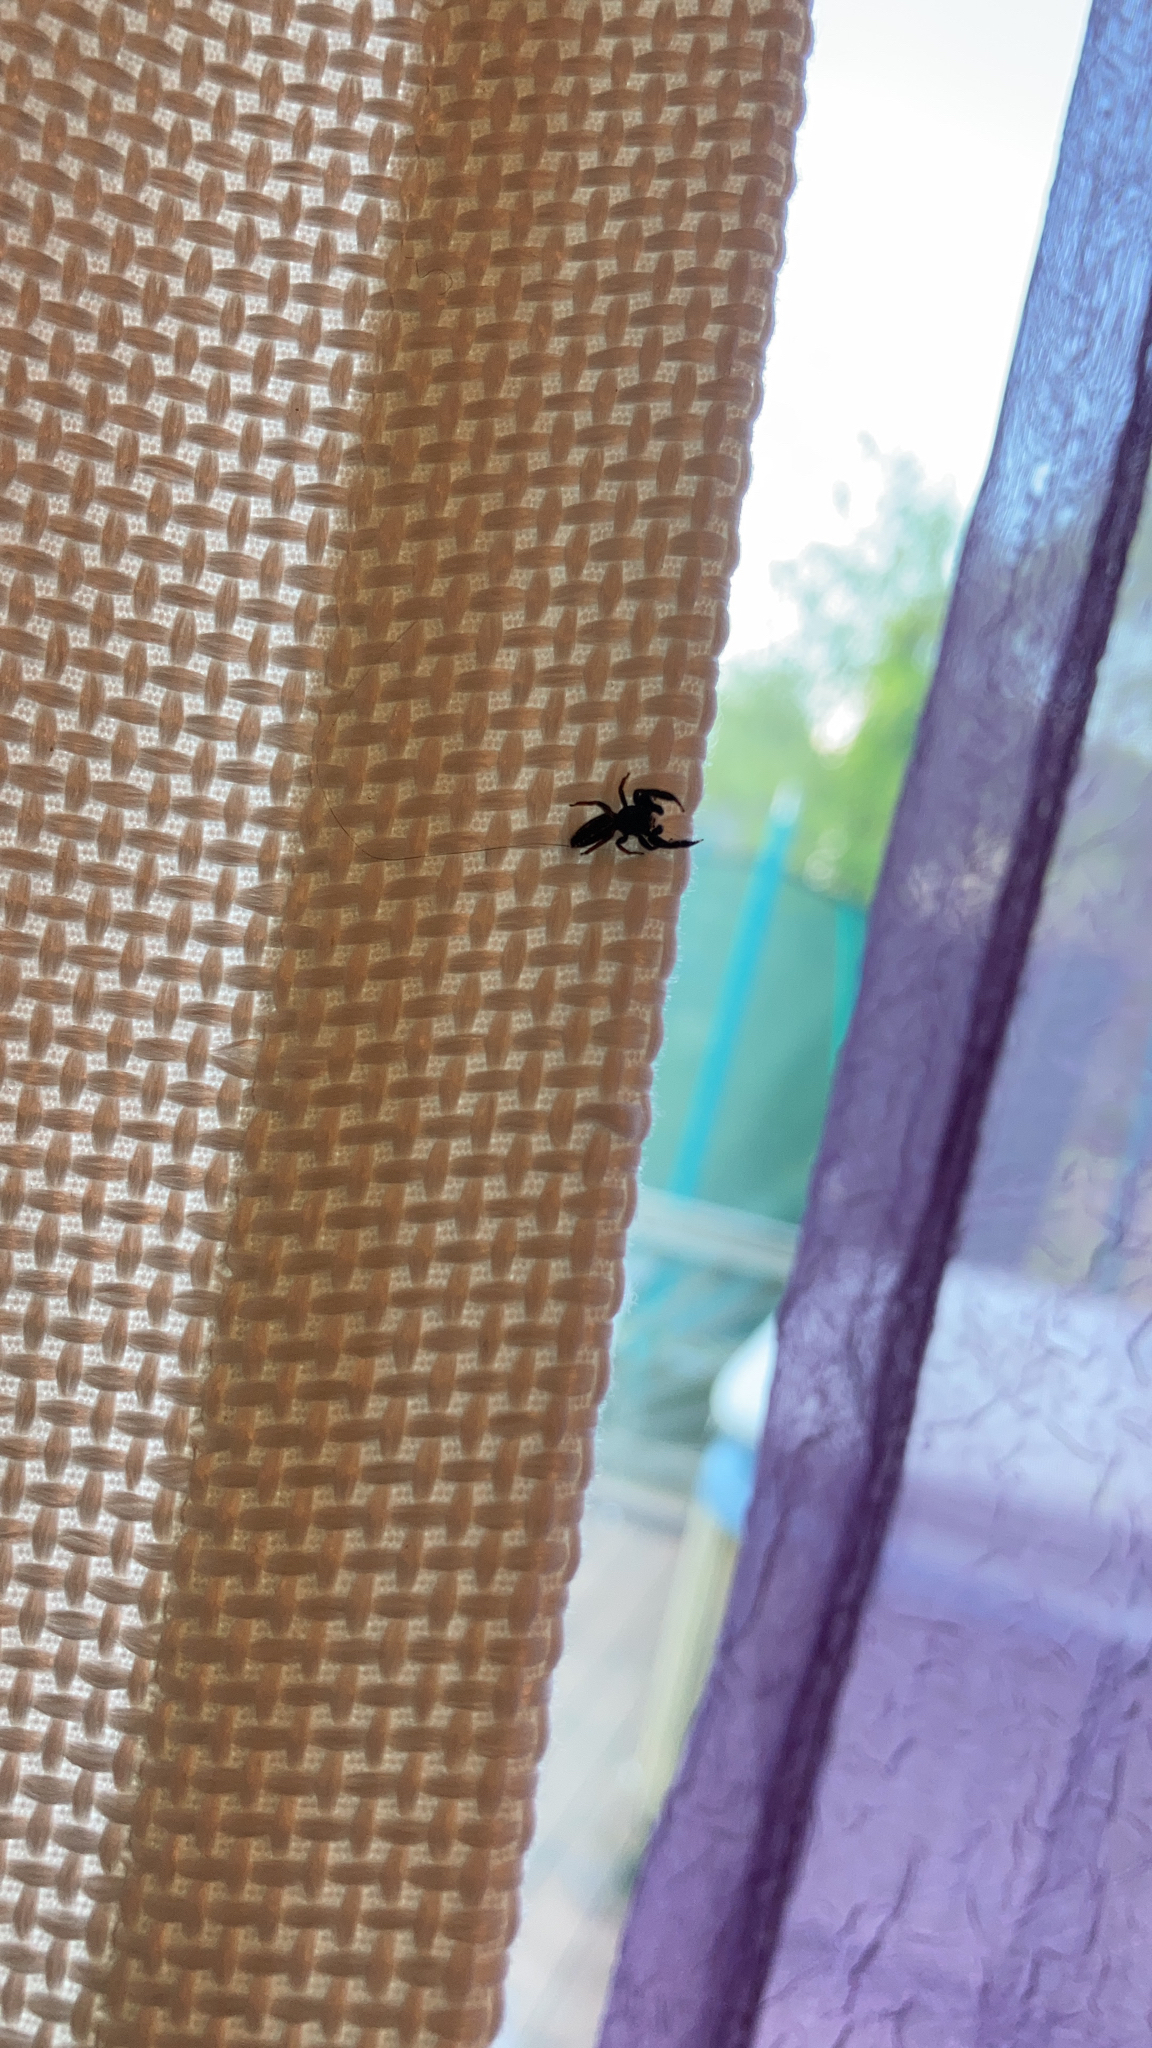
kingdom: Animalia
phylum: Arthropoda
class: Arachnida
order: Araneae
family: Salticidae
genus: Metacyrba
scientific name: Metacyrba taeniola
